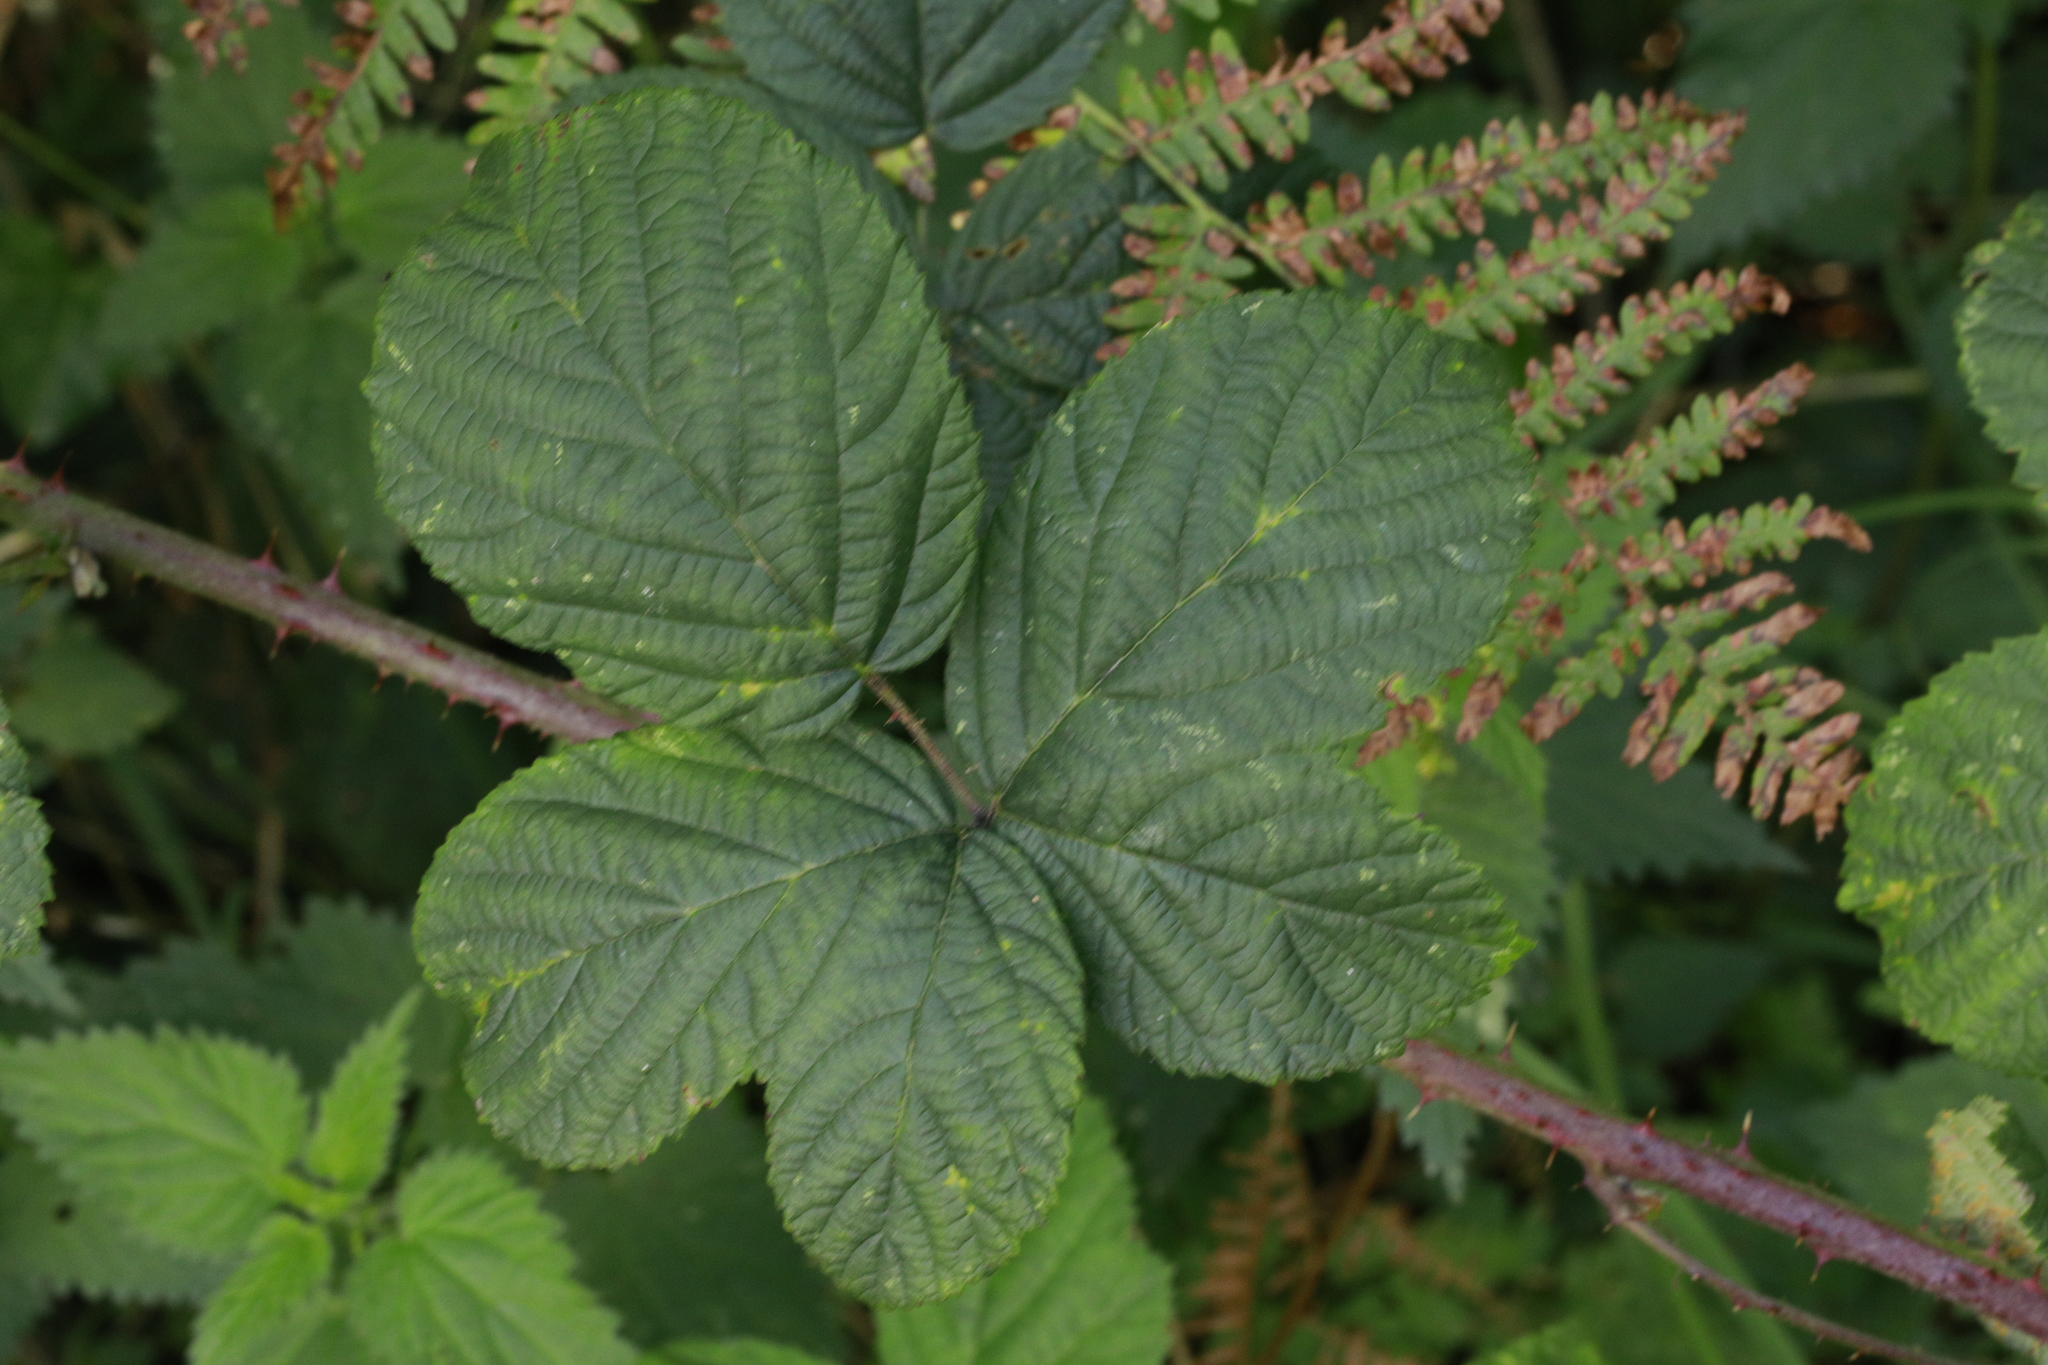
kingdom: Plantae
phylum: Tracheophyta
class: Magnoliopsida
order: Rosales
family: Rosaceae
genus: Rubus
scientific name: Rubus horrefactus
